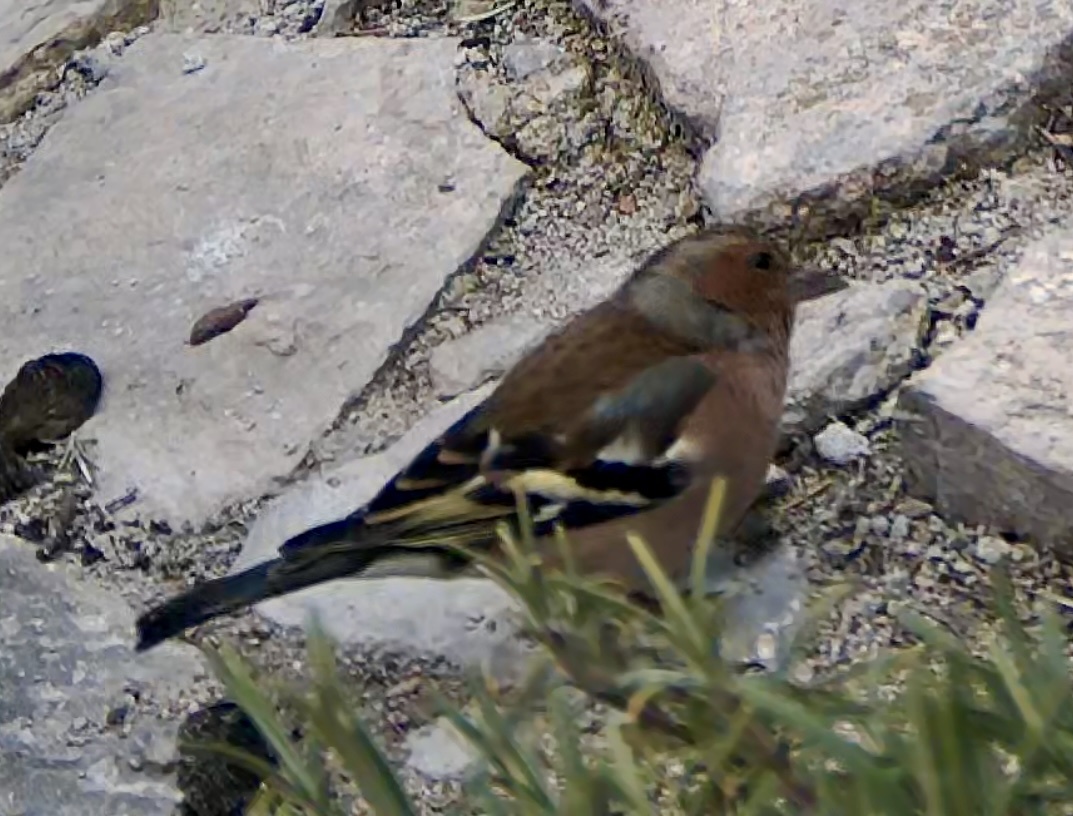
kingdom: Animalia
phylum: Chordata
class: Aves
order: Passeriformes
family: Fringillidae
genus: Fringilla
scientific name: Fringilla coelebs
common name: Common chaffinch
